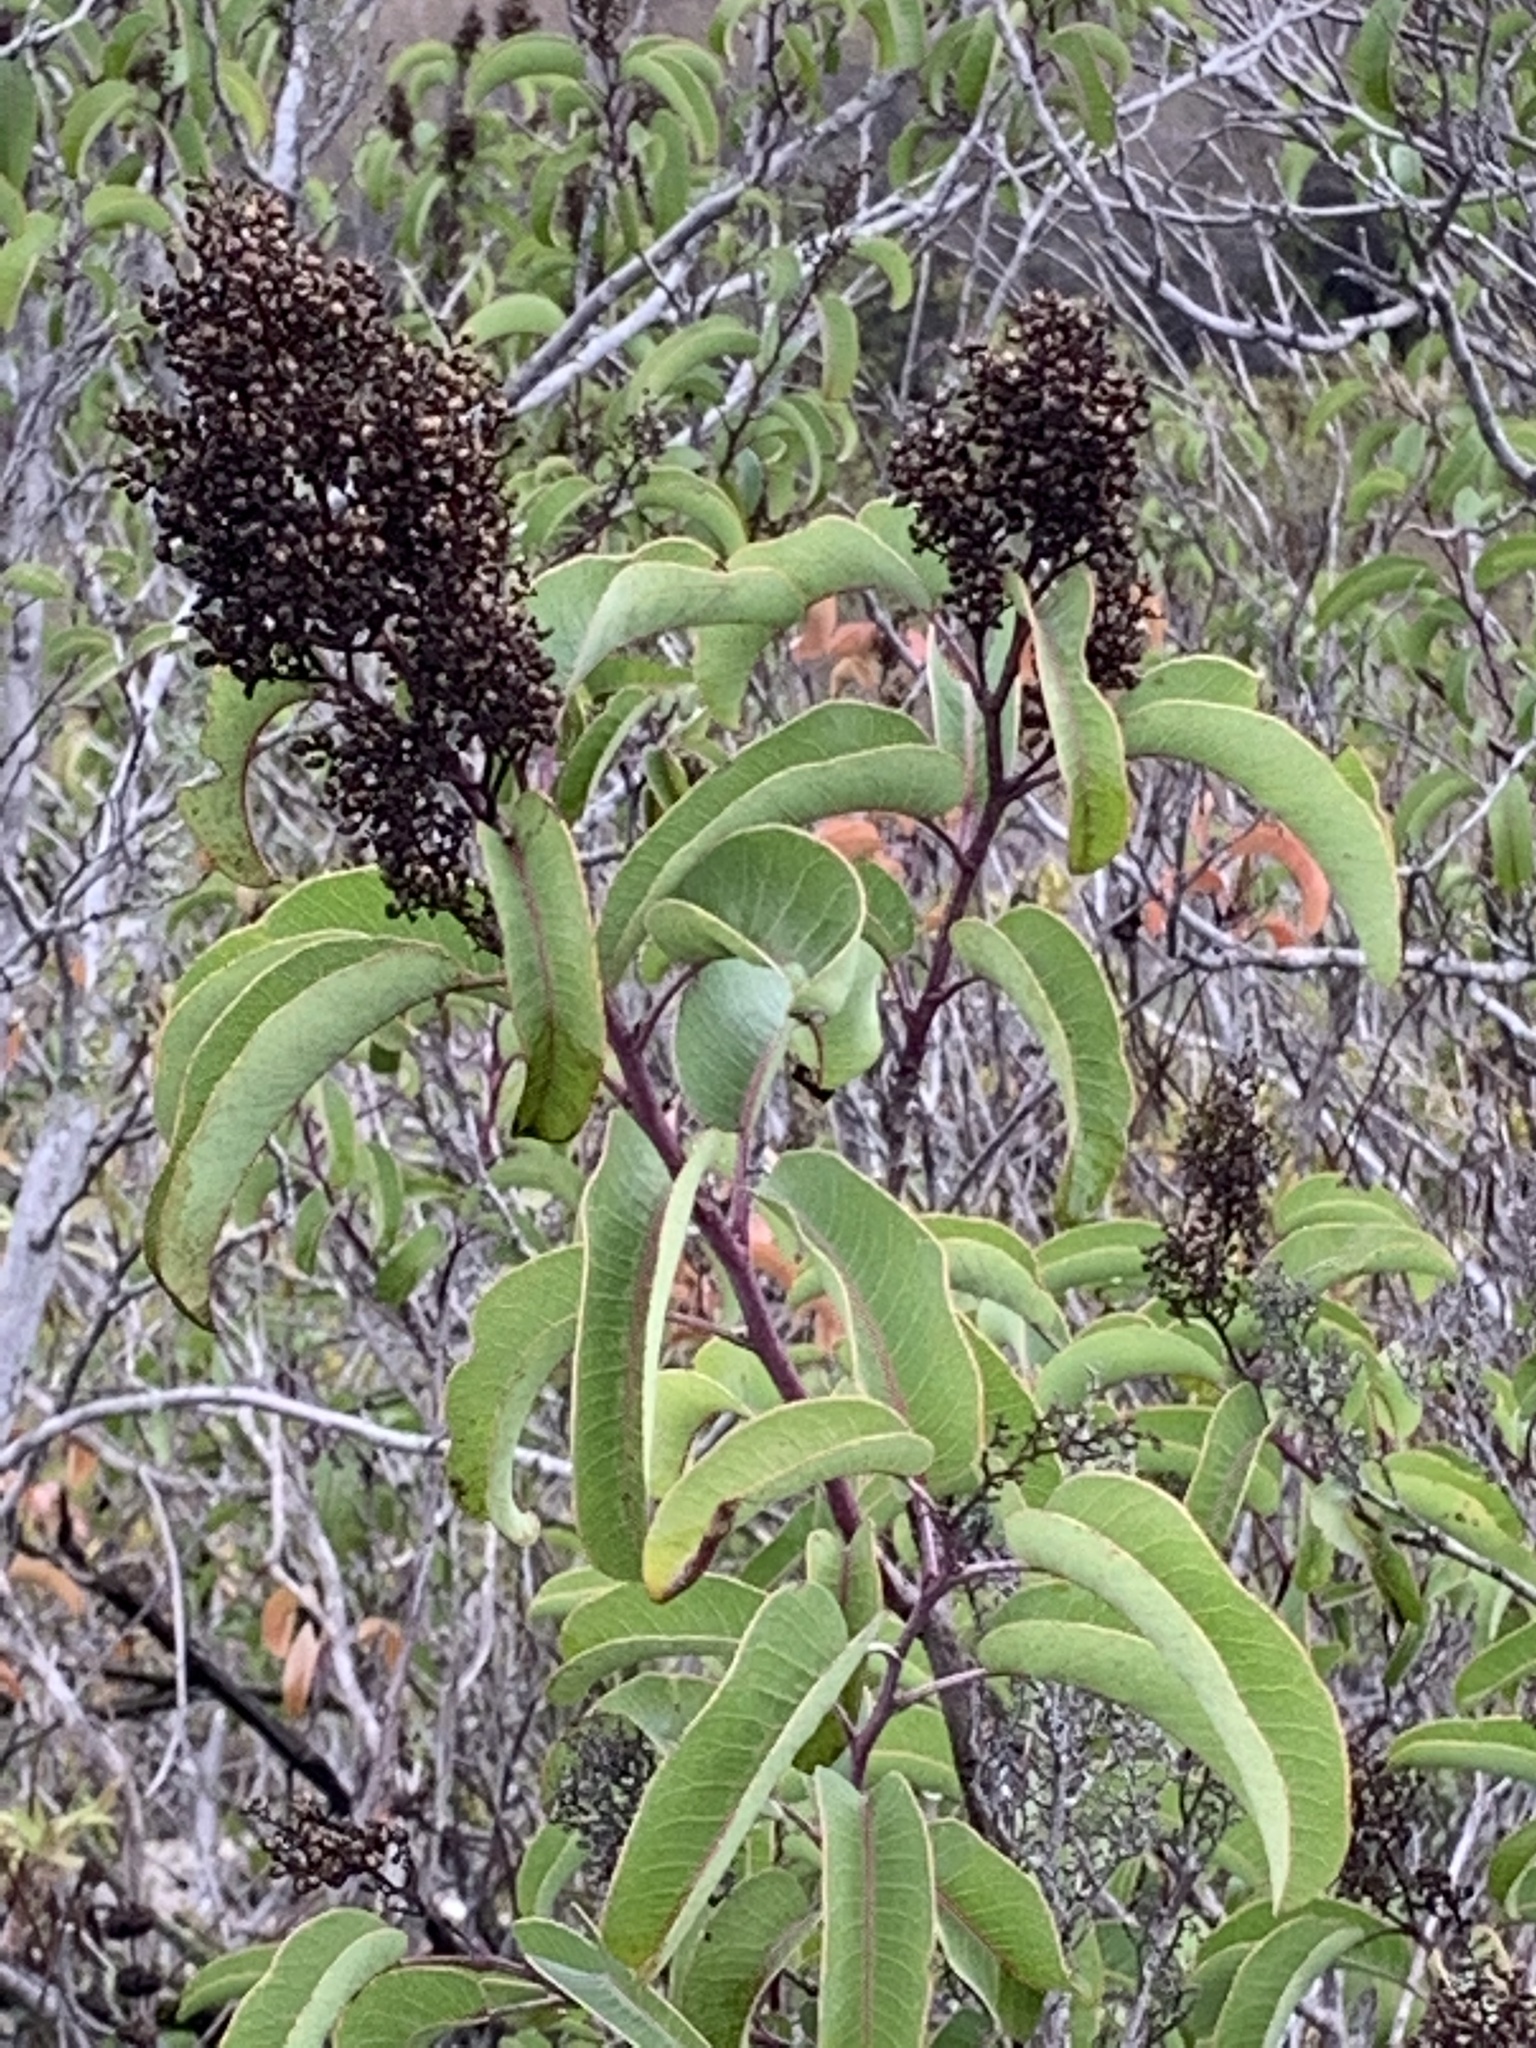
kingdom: Plantae
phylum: Tracheophyta
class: Magnoliopsida
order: Sapindales
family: Anacardiaceae
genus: Malosma
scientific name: Malosma laurina
